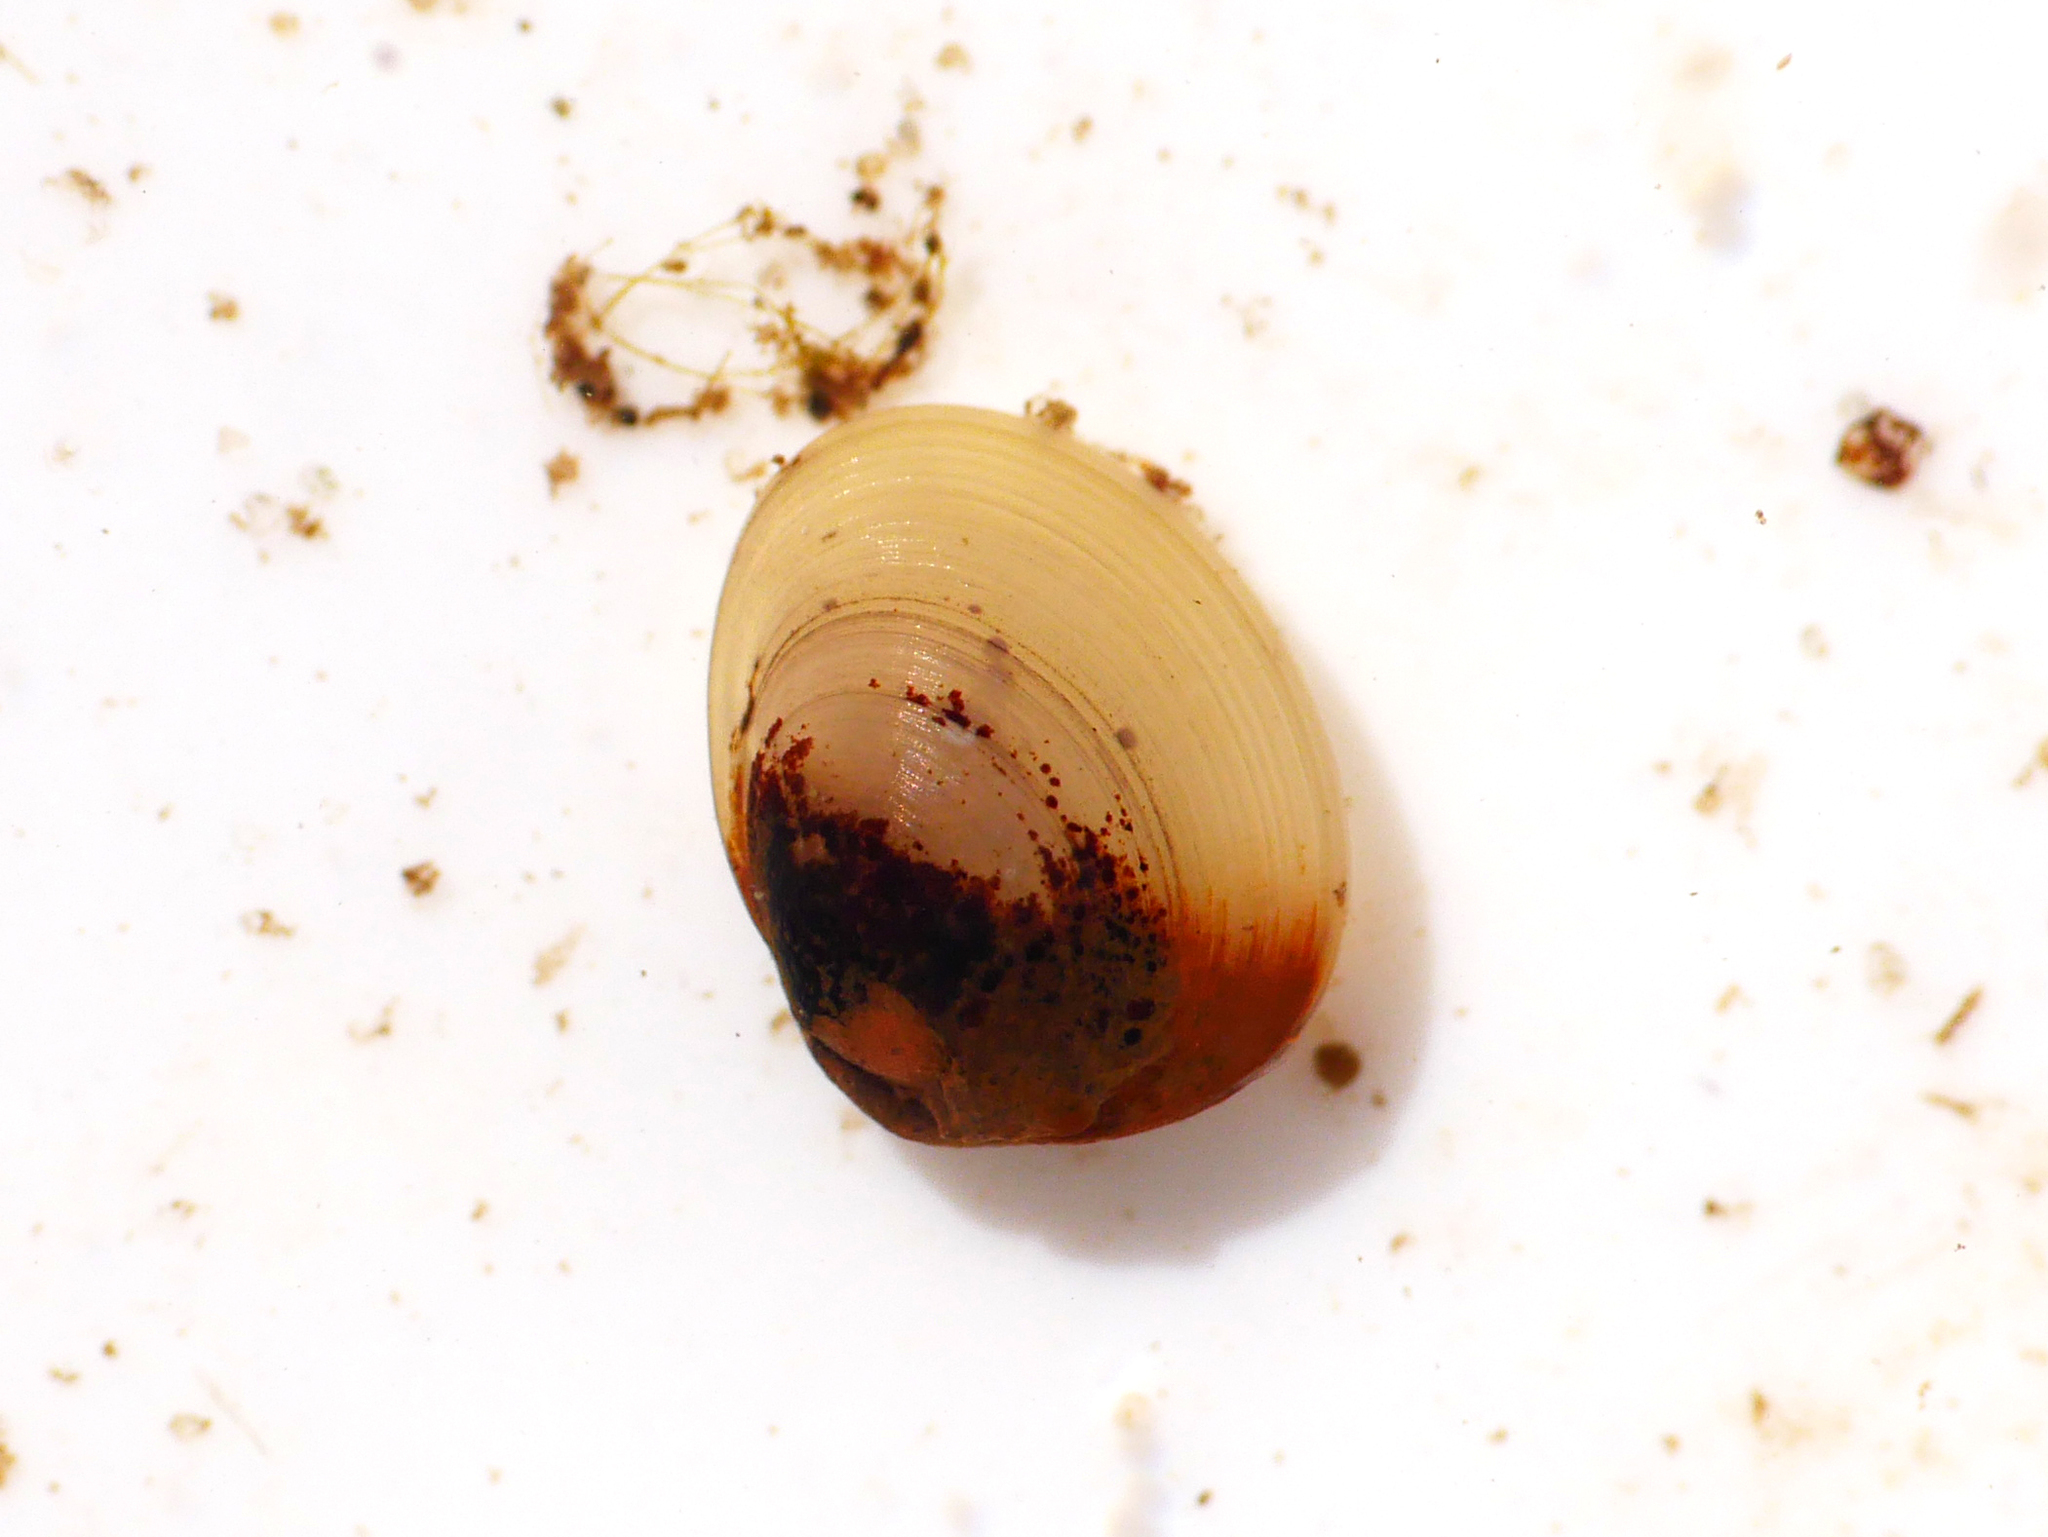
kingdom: Animalia
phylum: Mollusca
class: Bivalvia
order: Sphaeriida
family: Sphaeriidae
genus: Pisidium
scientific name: Pisidium amnicum
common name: Greater european peaclam
